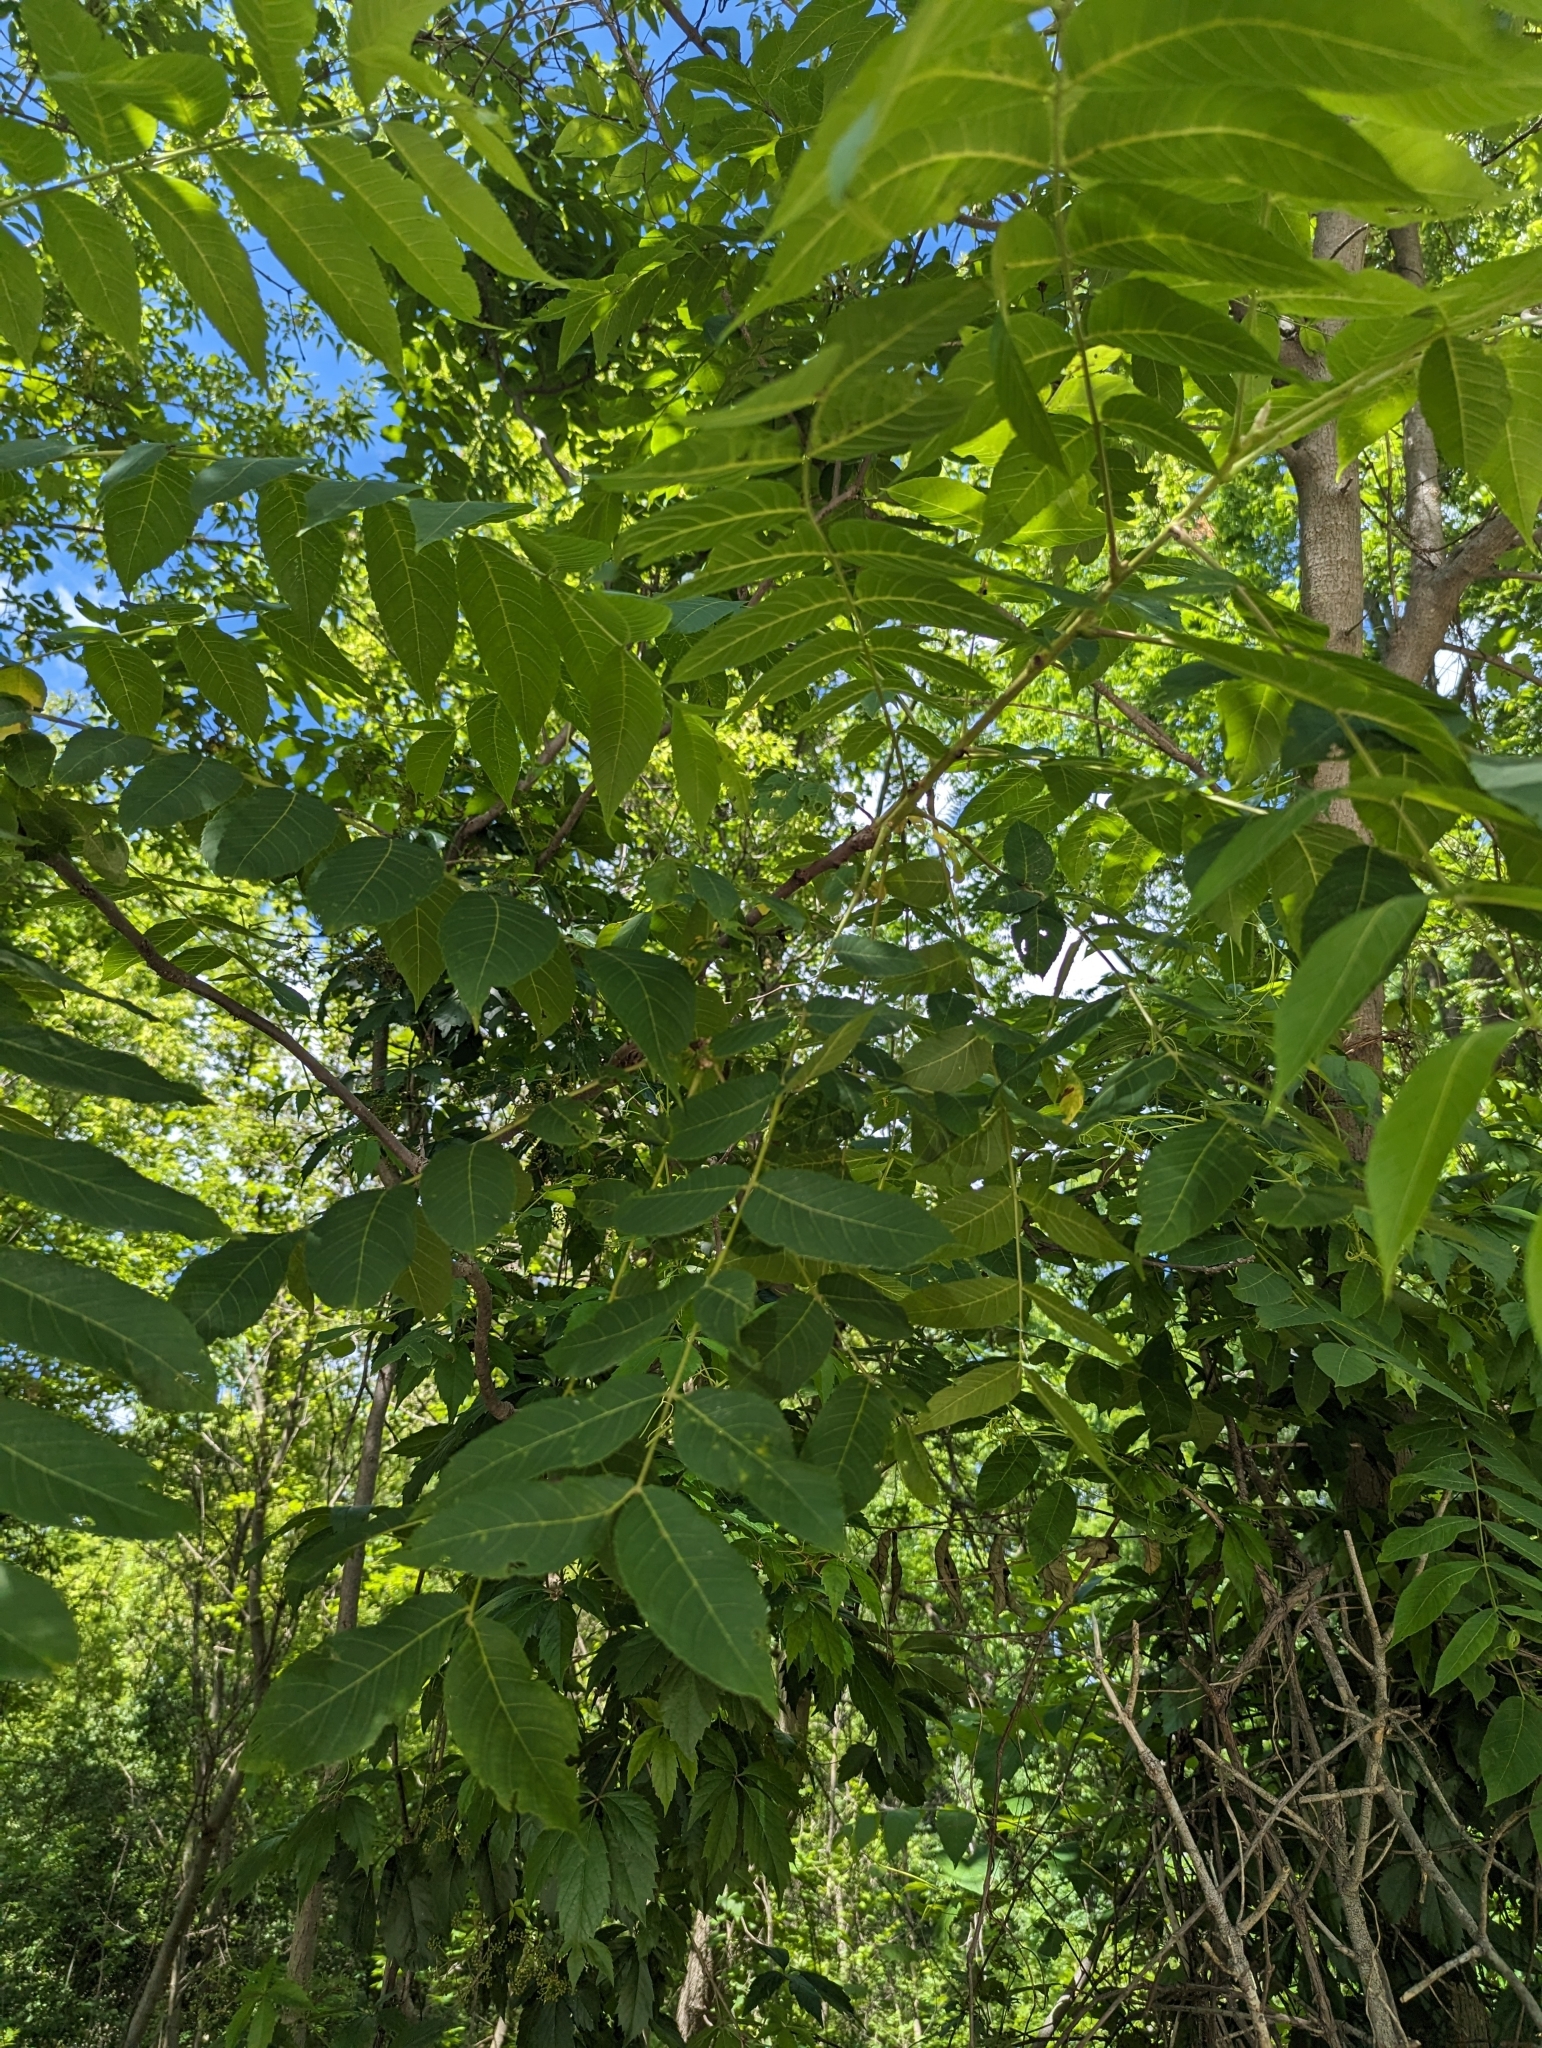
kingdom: Plantae
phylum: Tracheophyta
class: Magnoliopsida
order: Fagales
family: Juglandaceae
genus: Juglans
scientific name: Juglans nigra
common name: Black walnut
